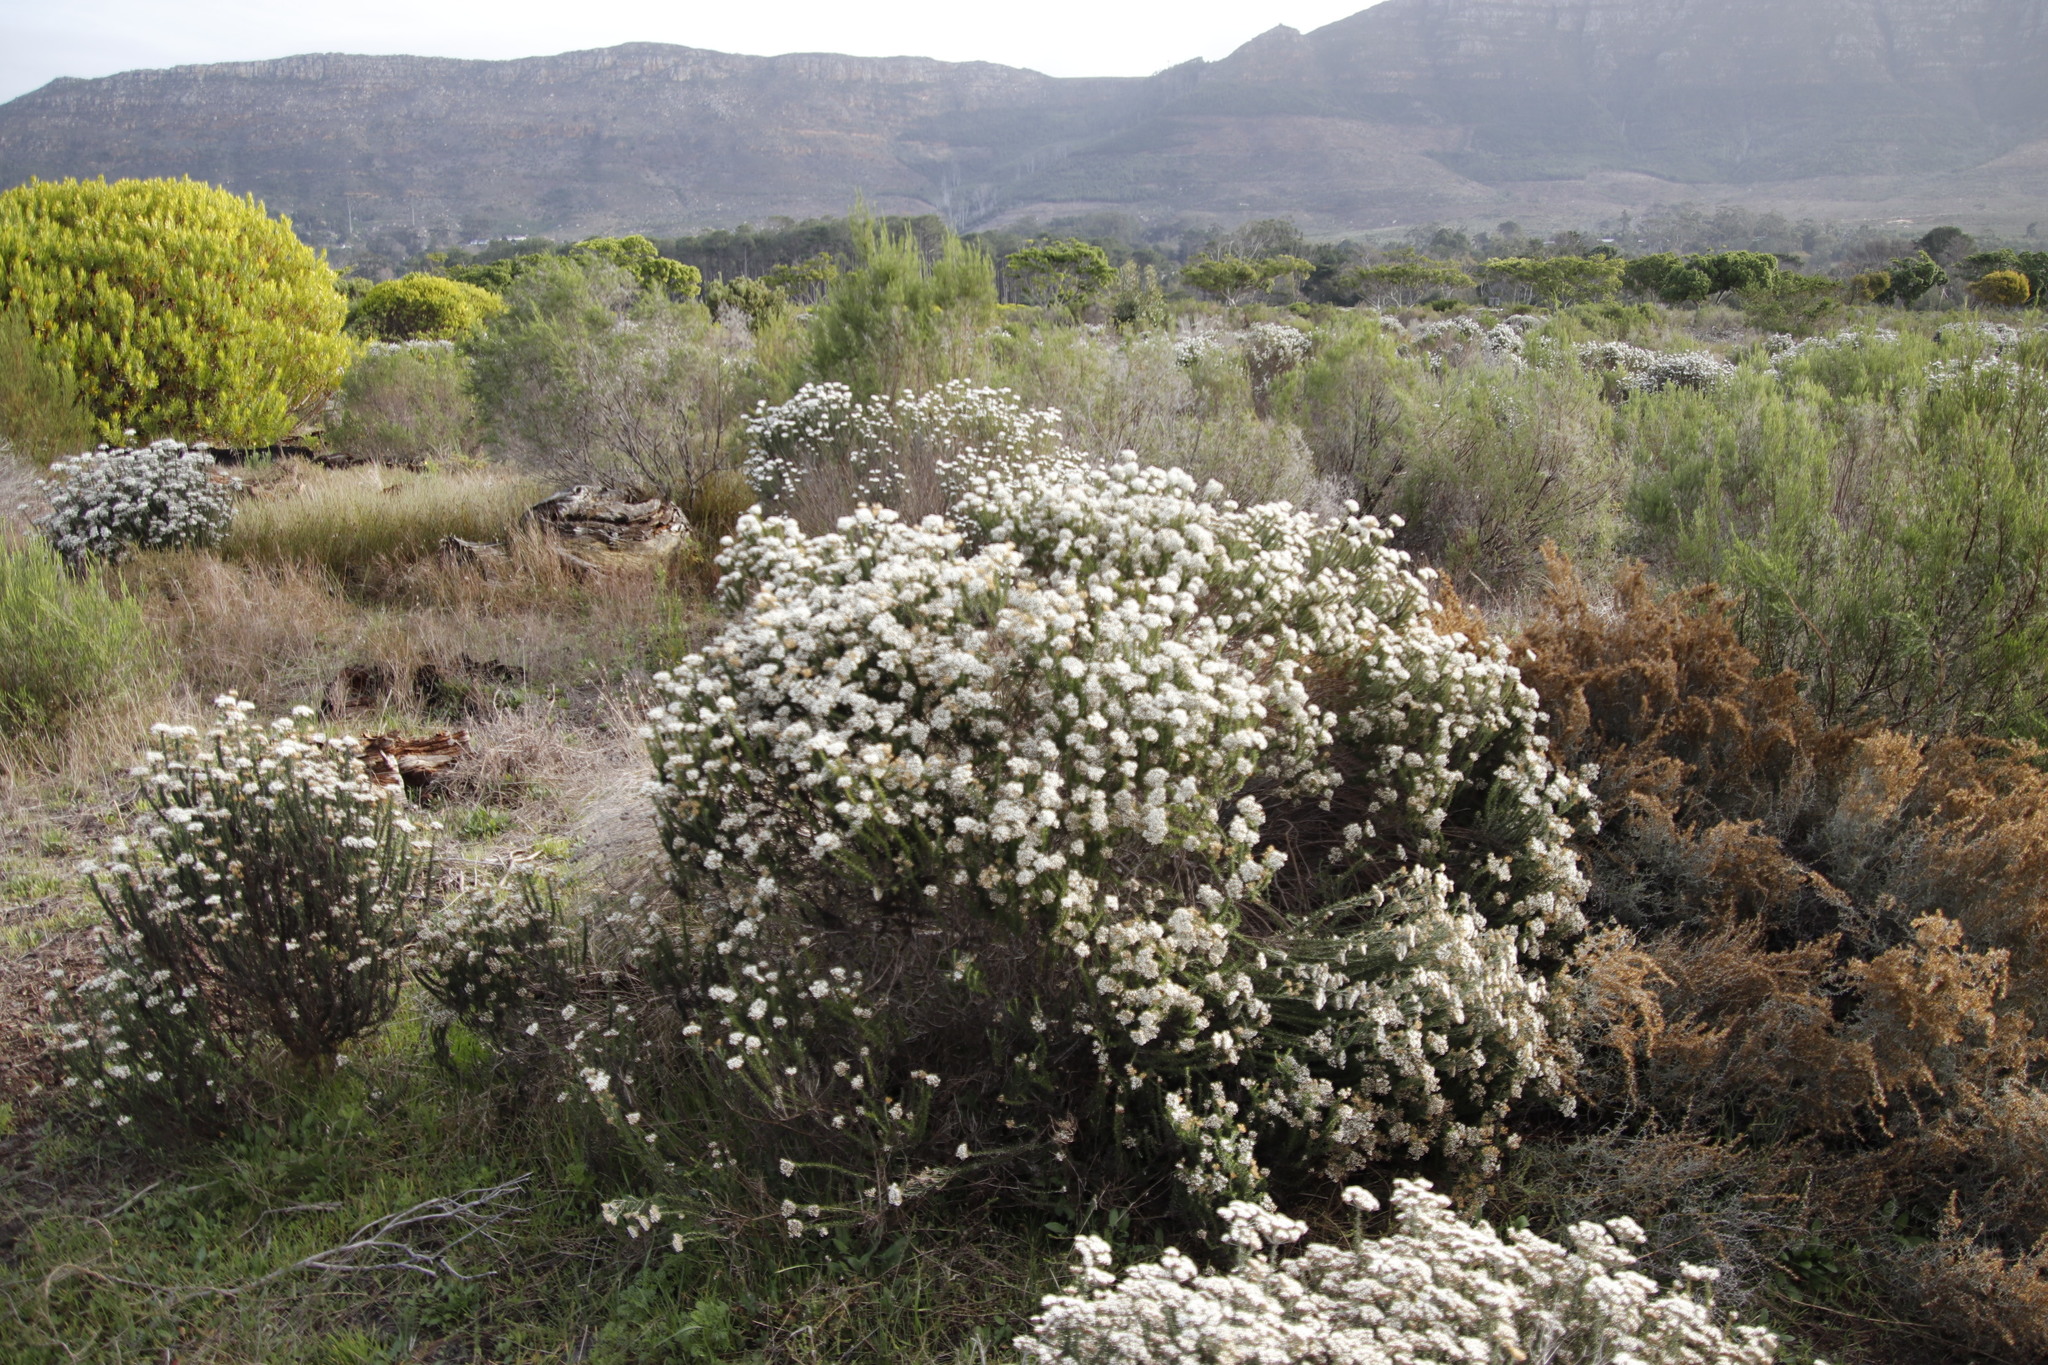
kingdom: Plantae
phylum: Tracheophyta
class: Magnoliopsida
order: Asterales
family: Asteraceae
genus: Metalasia
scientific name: Metalasia densa
